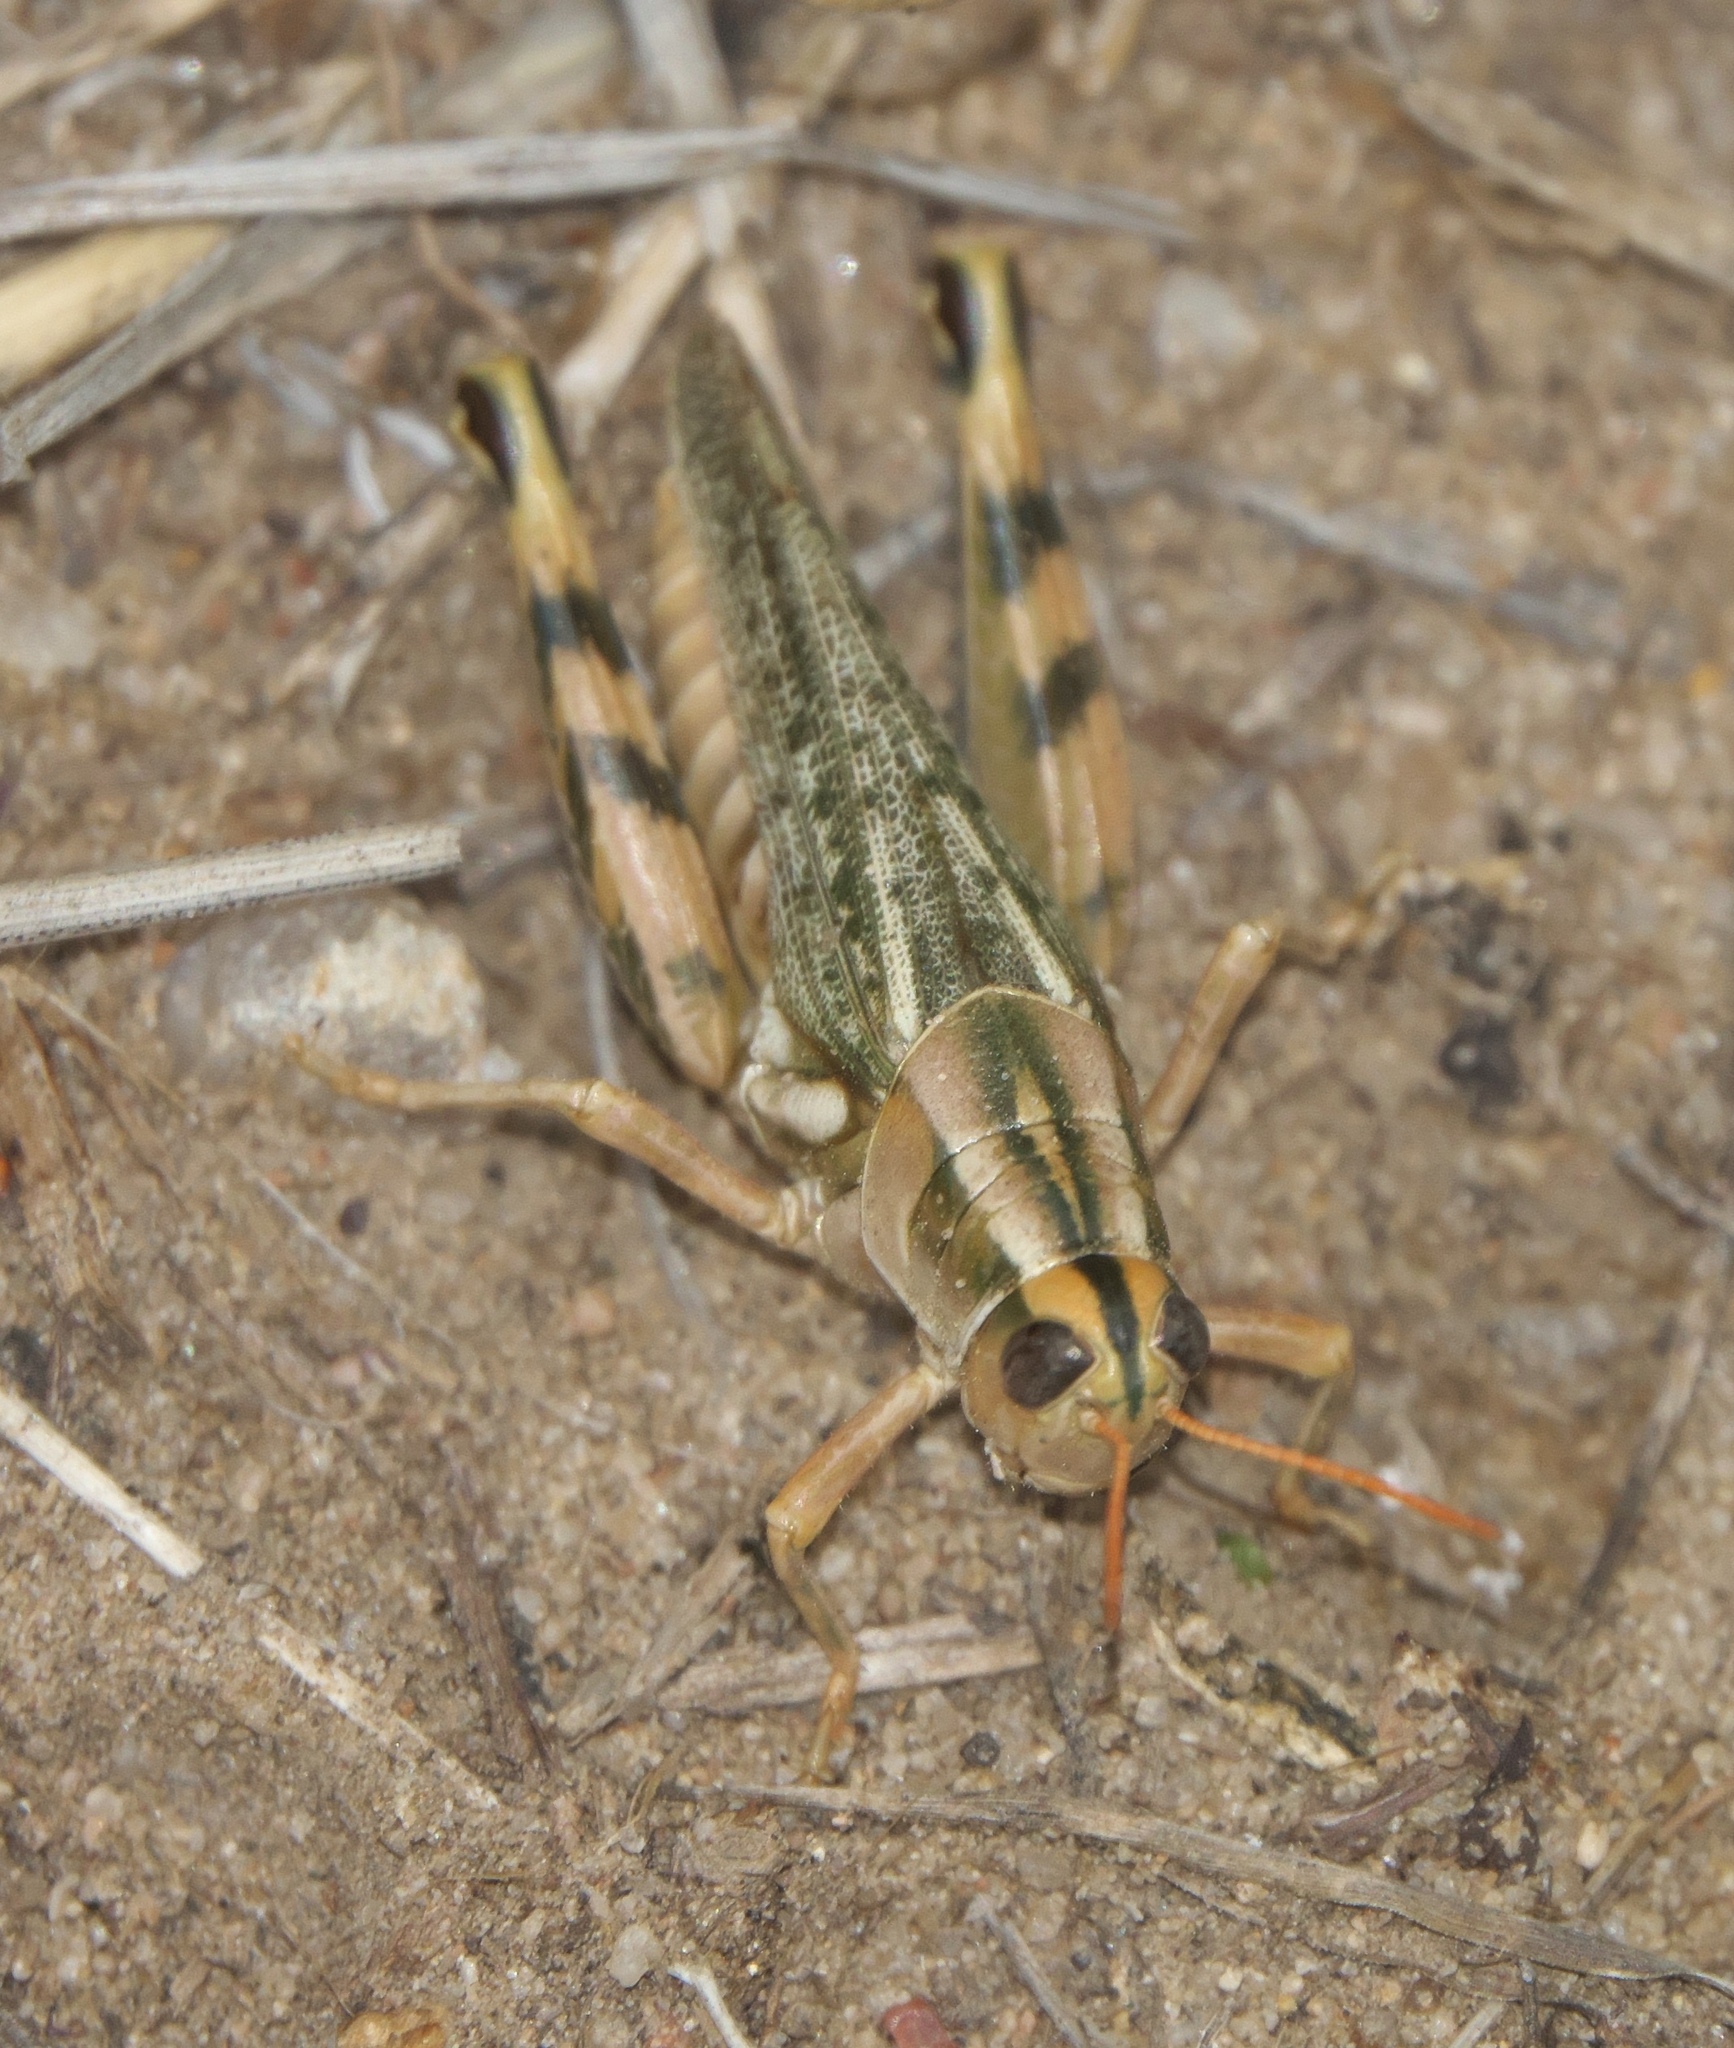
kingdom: Animalia
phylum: Arthropoda
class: Insecta
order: Orthoptera
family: Acrididae
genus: Aeoloplides
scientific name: Aeoloplides turnbulli
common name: Russianthistle grasshopper
